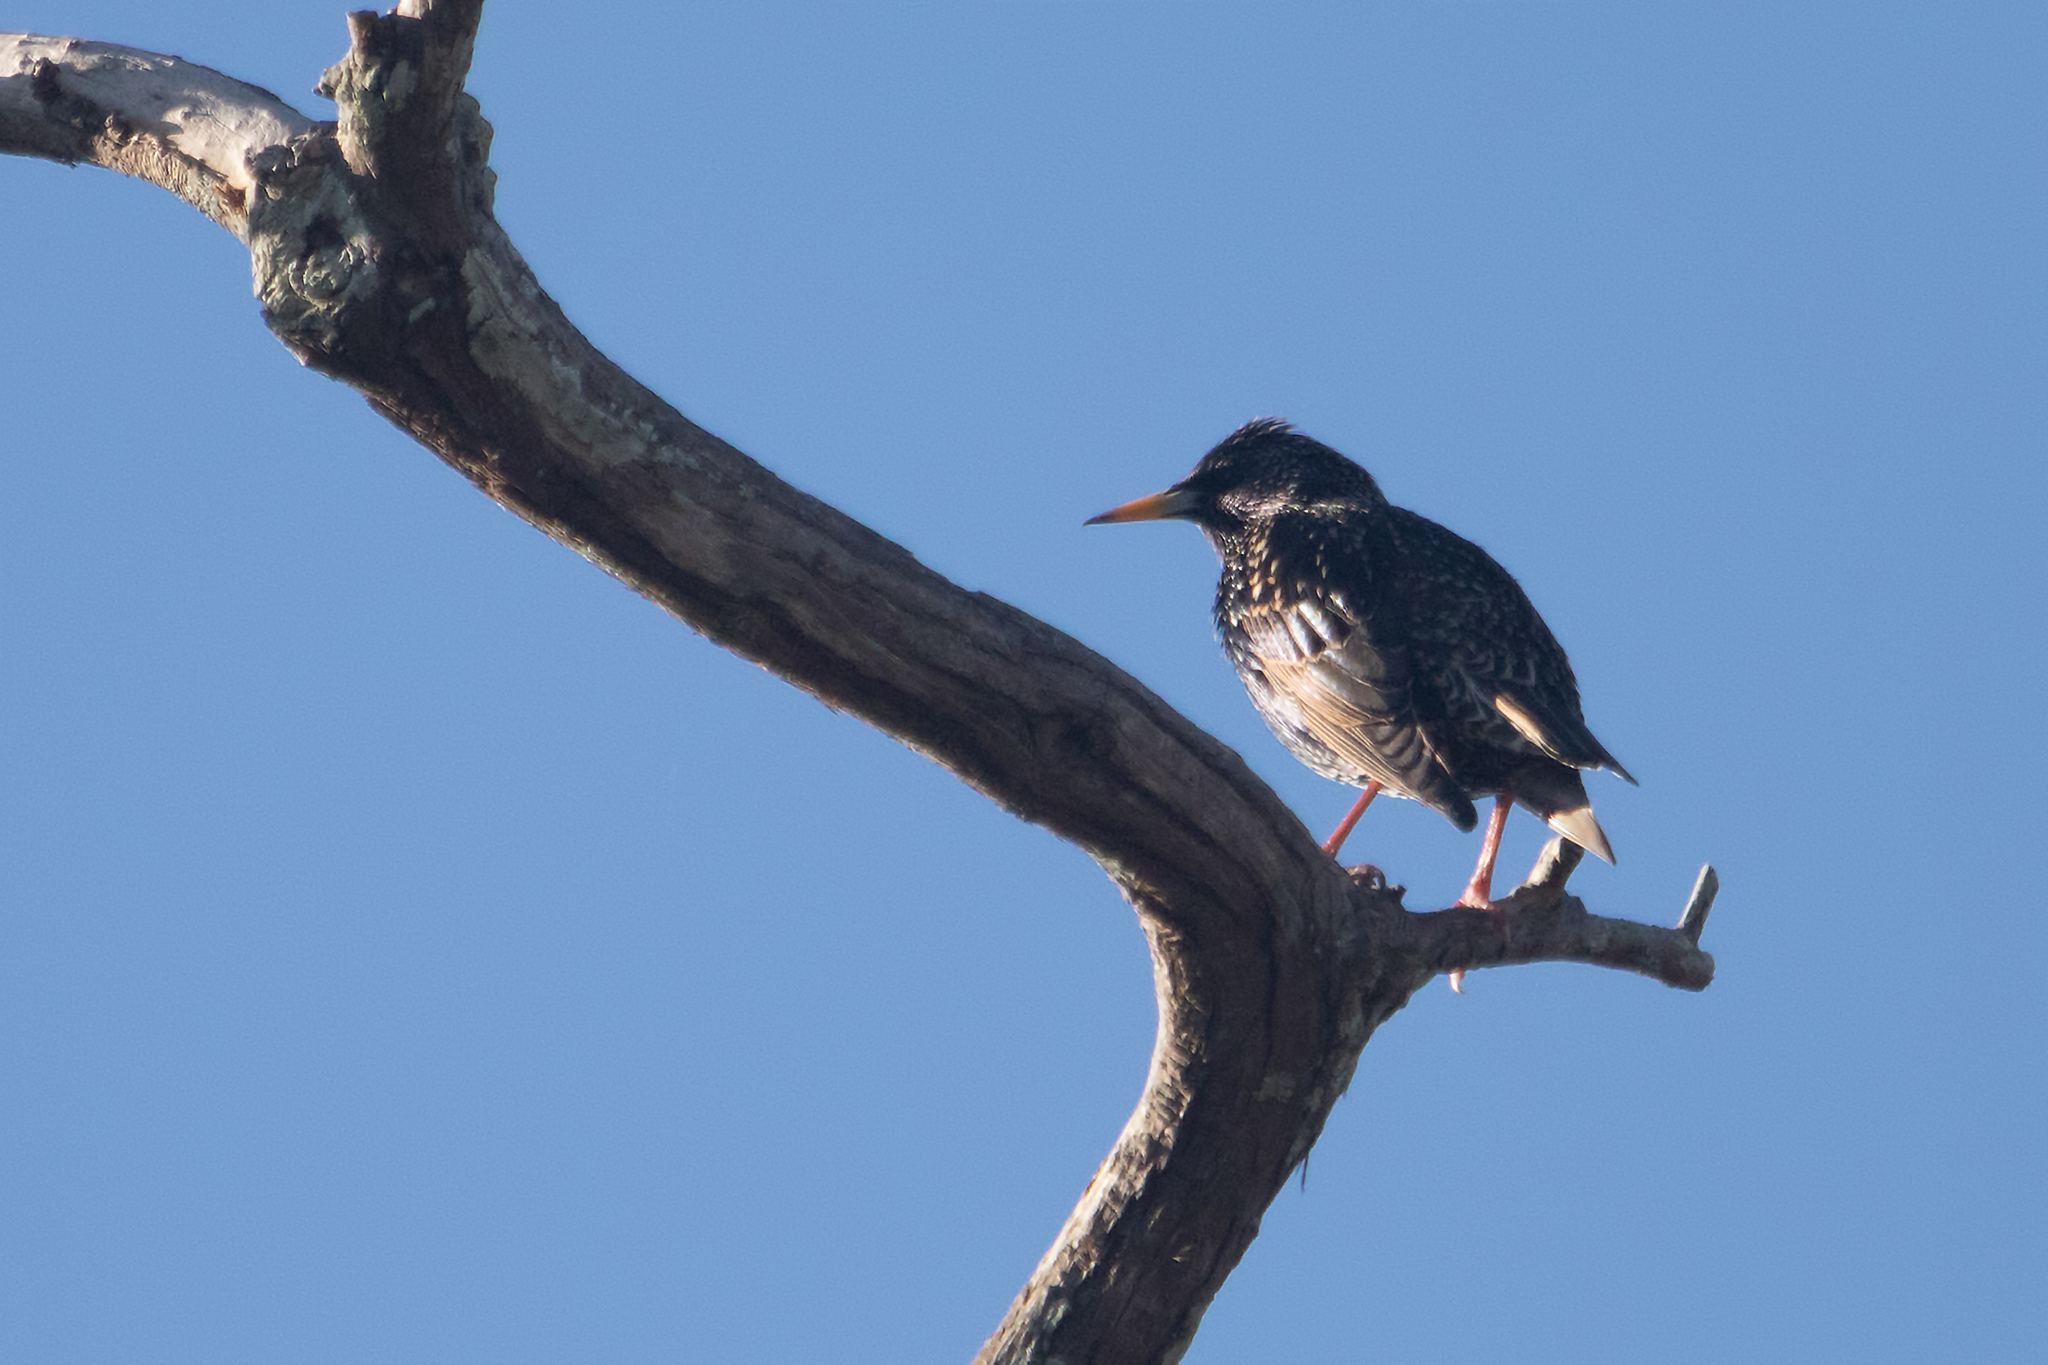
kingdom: Animalia
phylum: Chordata
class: Aves
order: Passeriformes
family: Sturnidae
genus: Sturnus
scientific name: Sturnus vulgaris
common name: Common starling
